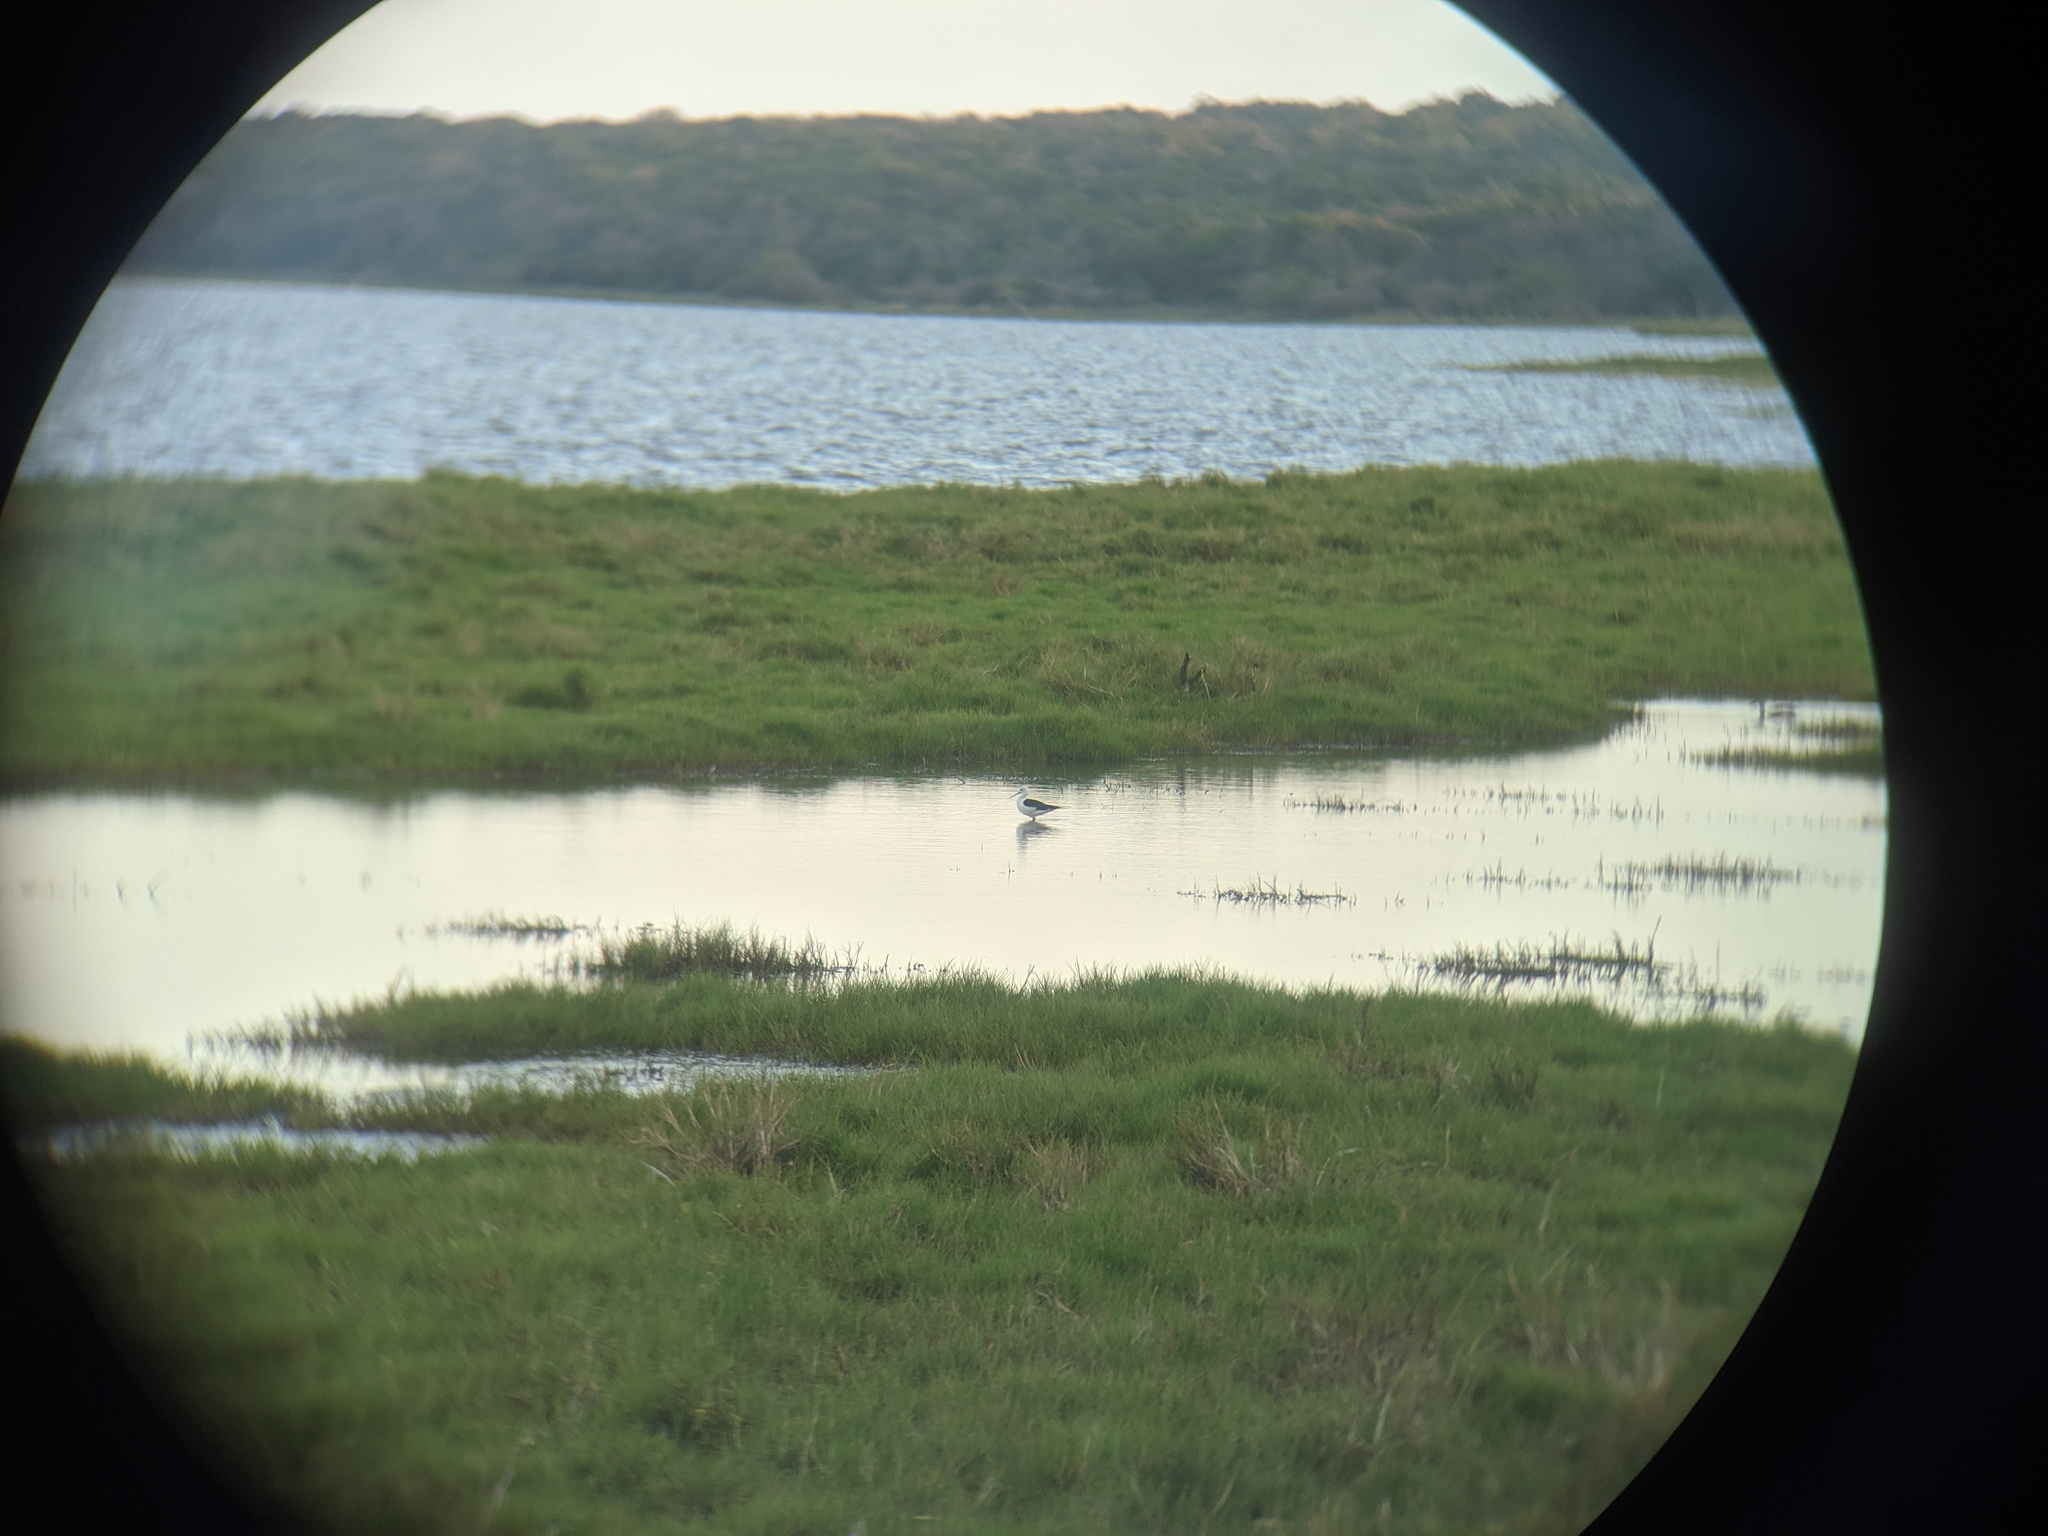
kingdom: Animalia
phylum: Chordata
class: Aves
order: Charadriiformes
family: Recurvirostridae
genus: Himantopus
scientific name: Himantopus himantopus
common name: Black-winged stilt
